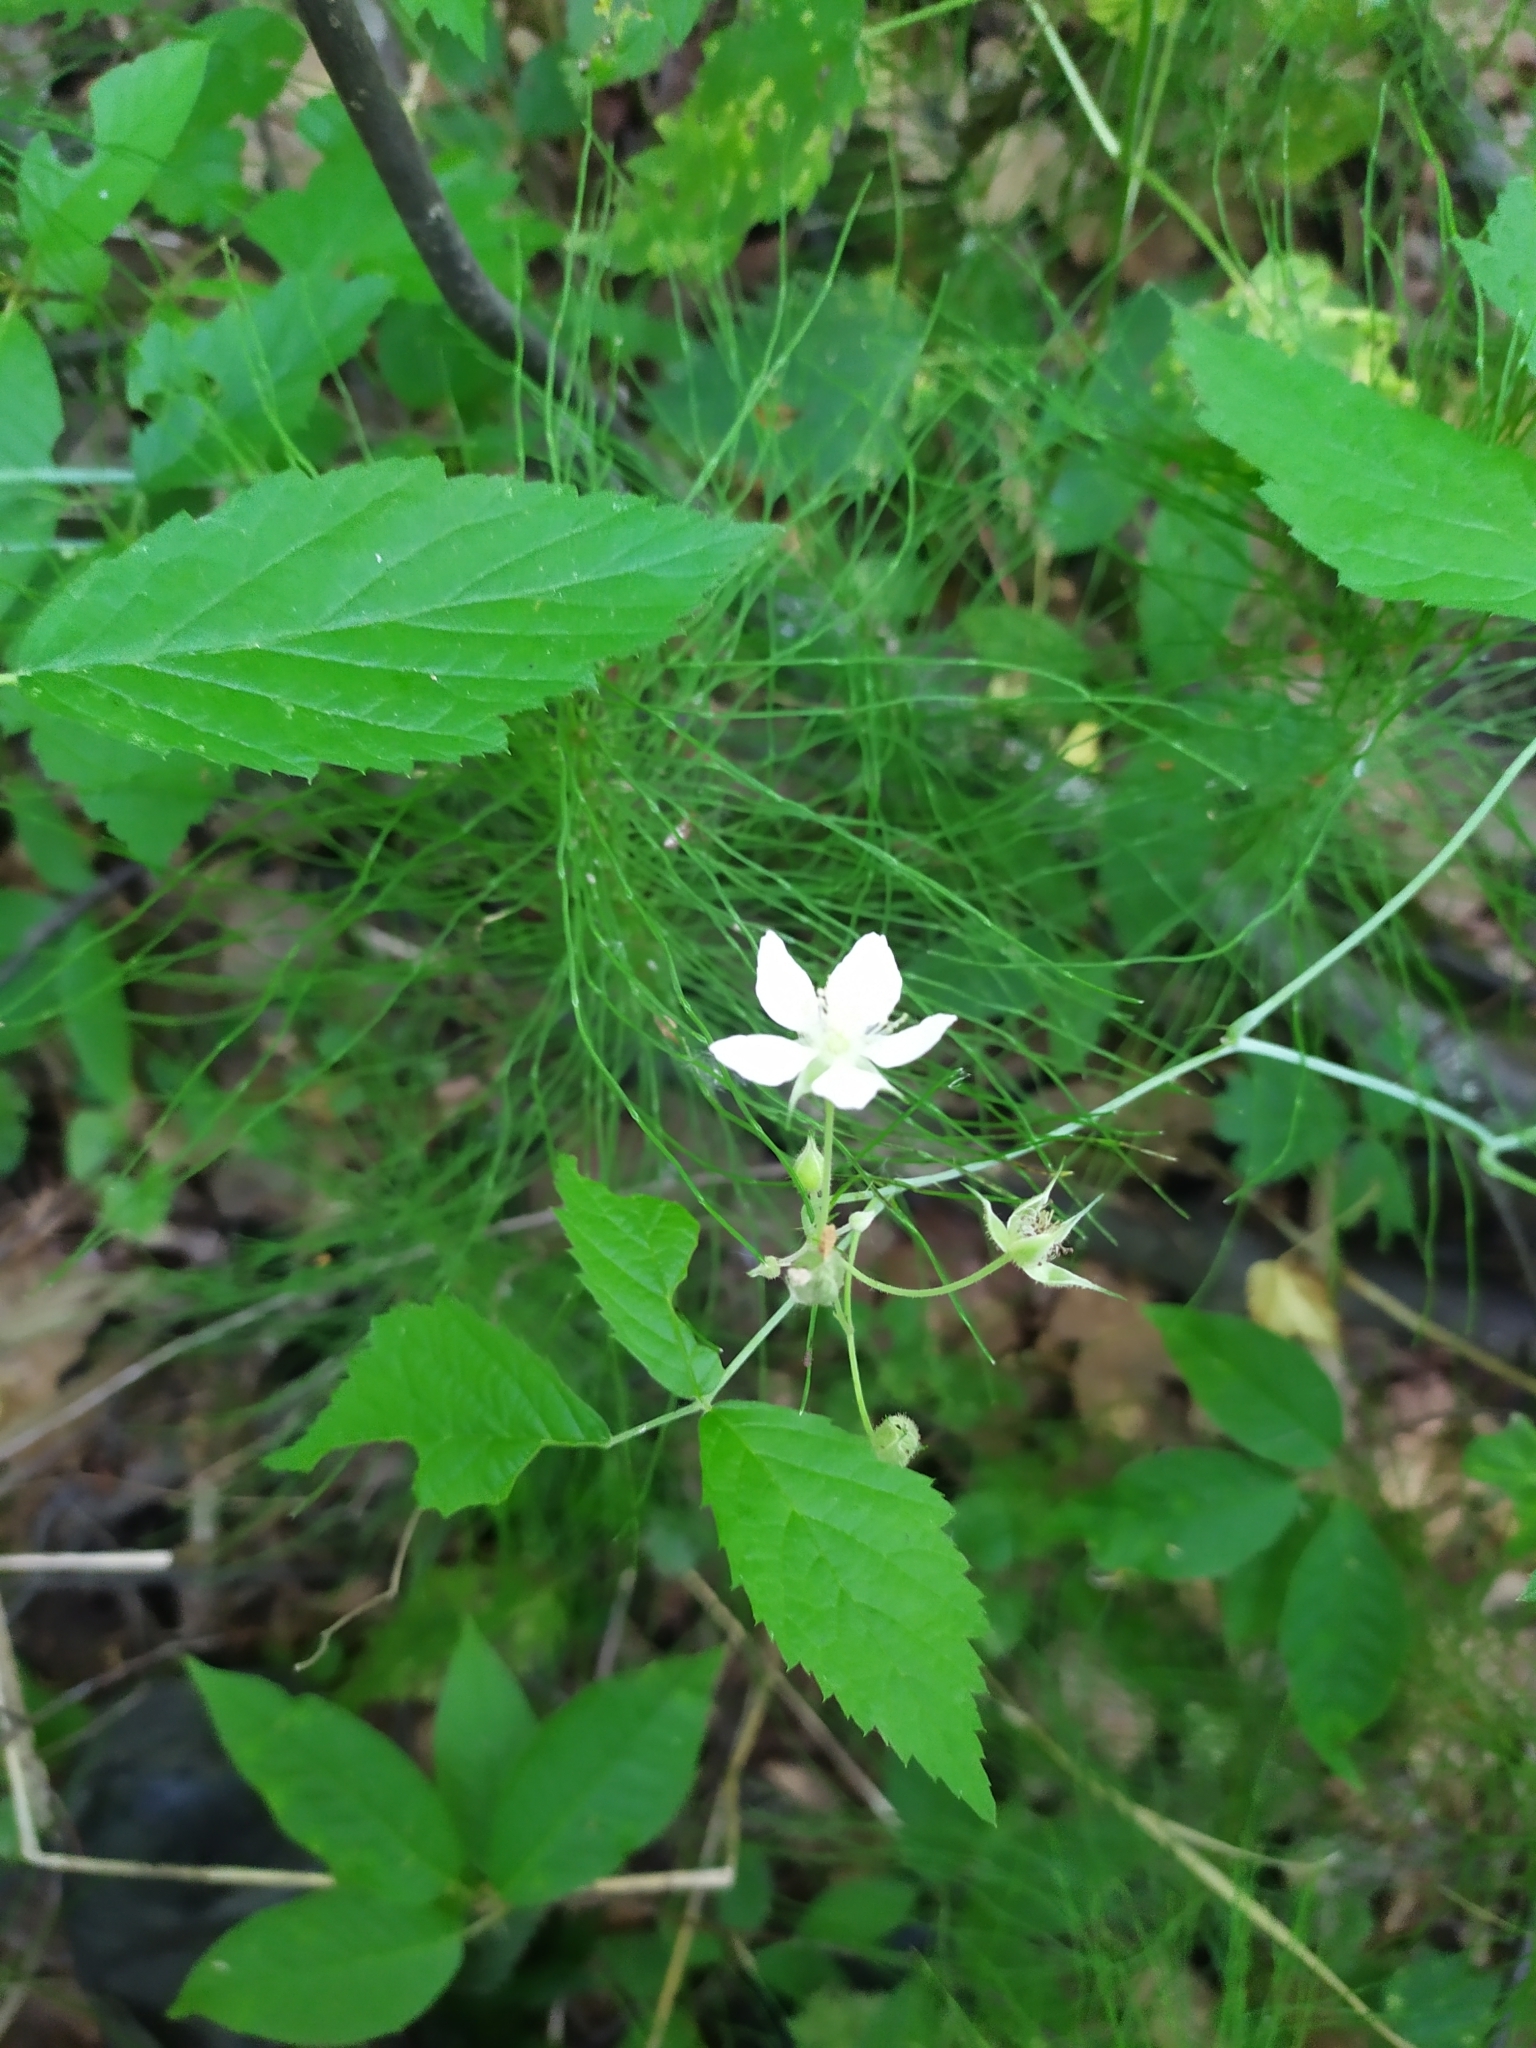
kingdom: Plantae
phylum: Tracheophyta
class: Magnoliopsida
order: Rosales
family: Rosaceae
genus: Rubus
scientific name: Rubus caesius
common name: Dewberry
